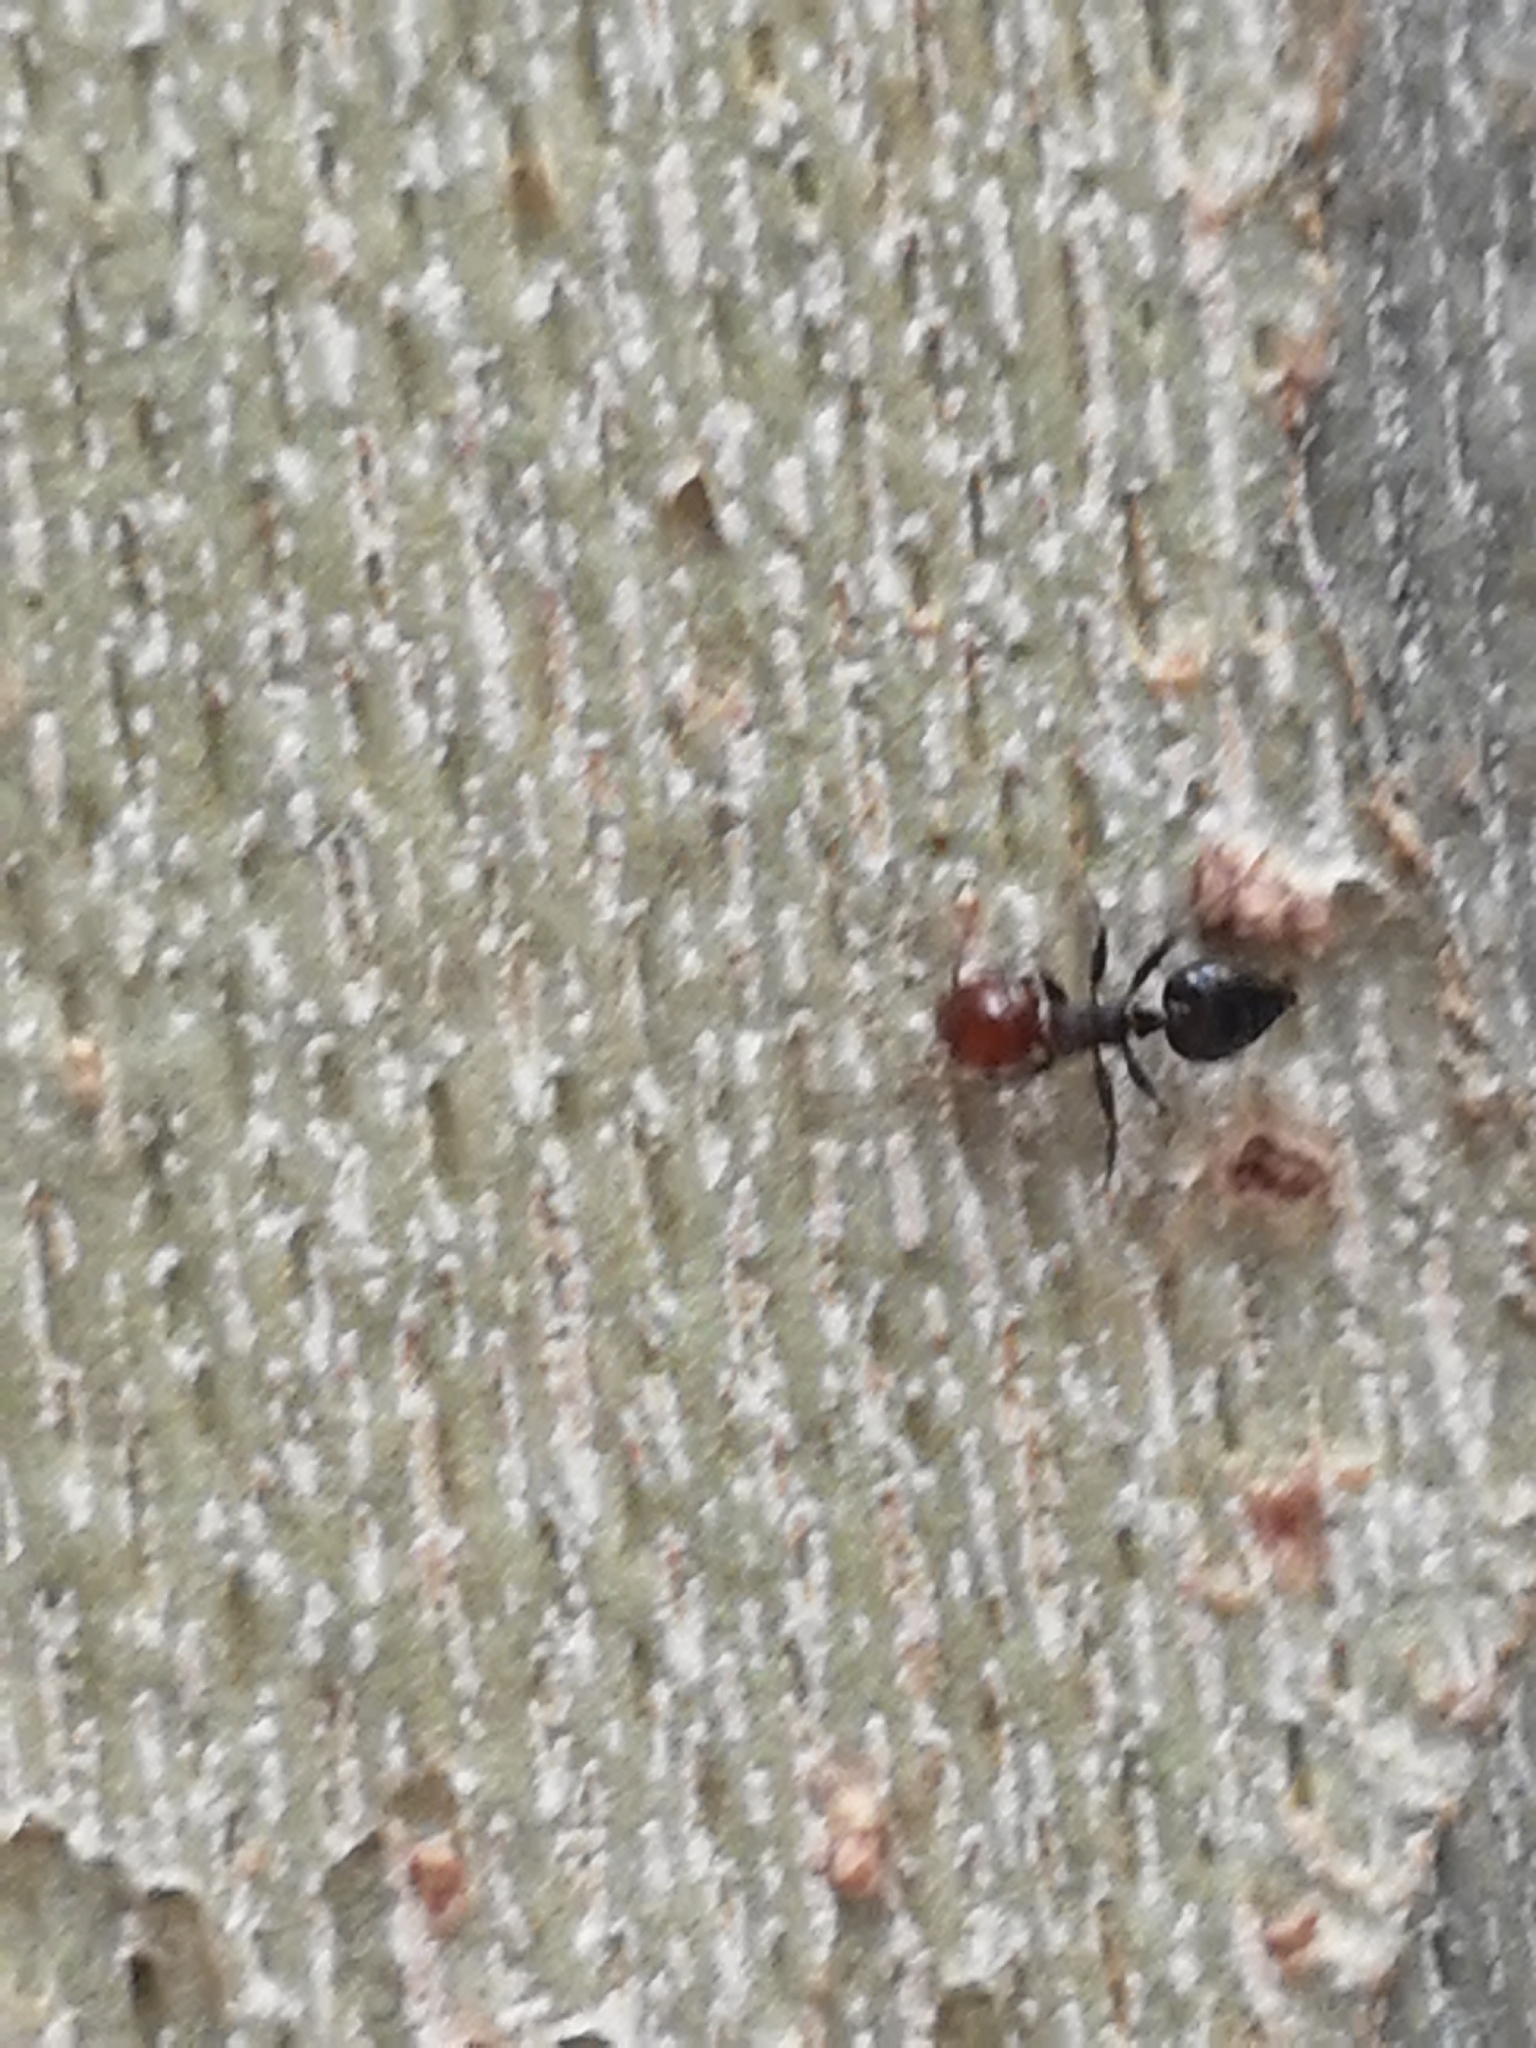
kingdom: Animalia
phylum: Arthropoda
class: Insecta
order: Hymenoptera
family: Formicidae
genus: Crematogaster
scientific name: Crematogaster scutellaris
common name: Fourmi du liège
